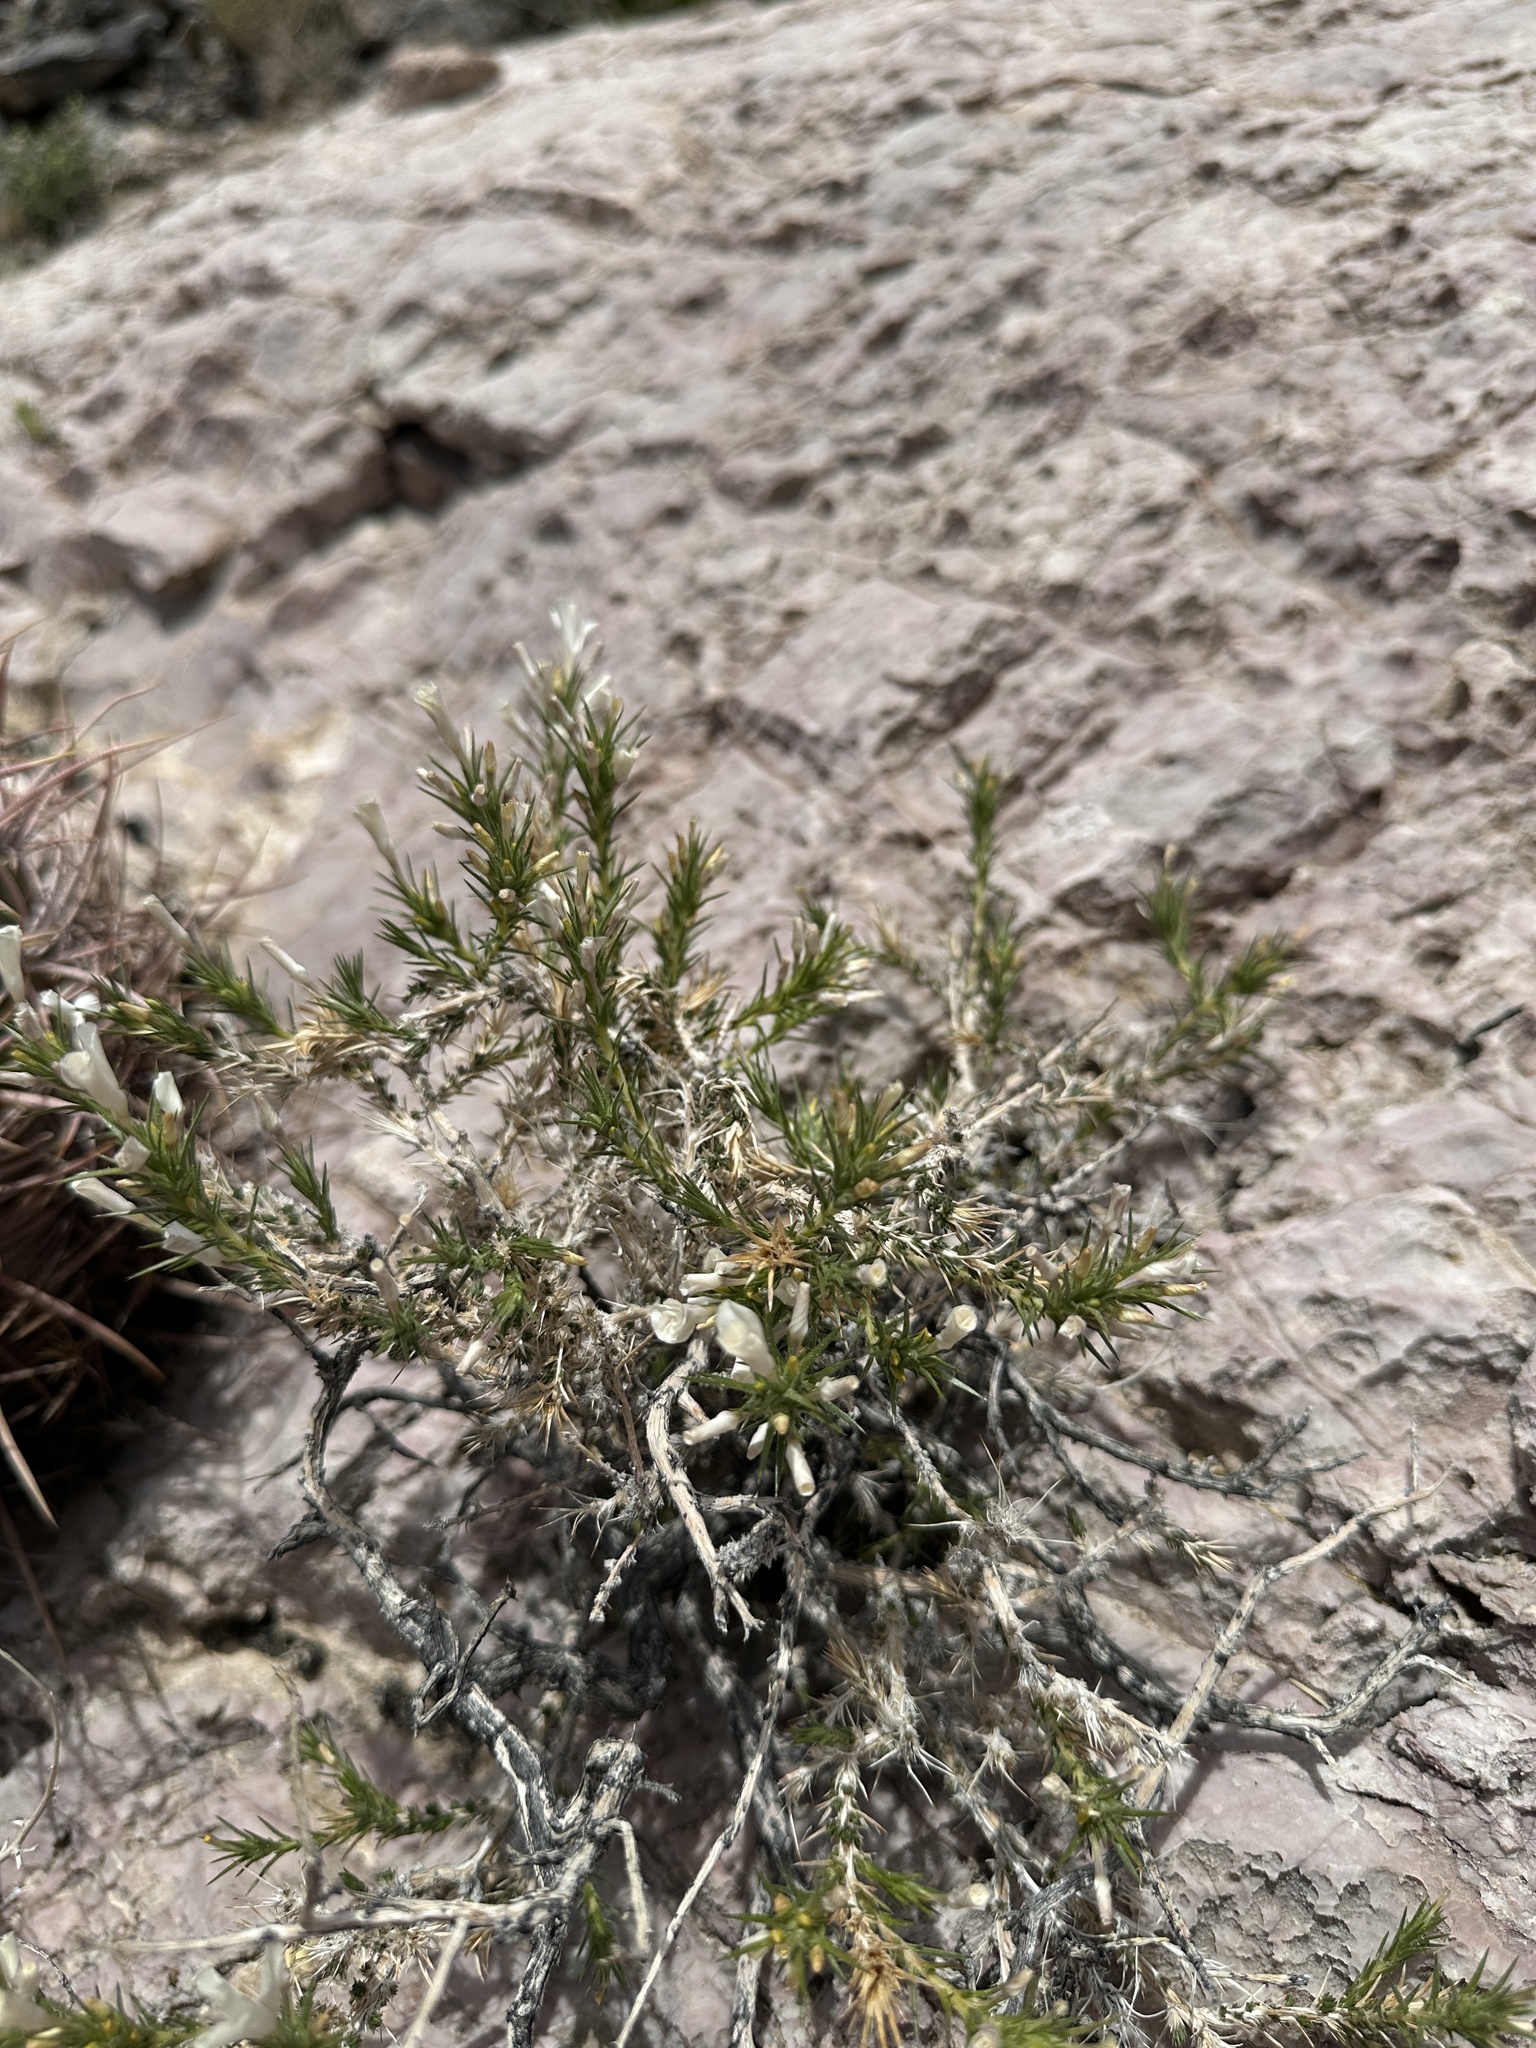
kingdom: Plantae
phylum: Tracheophyta
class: Magnoliopsida
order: Ericales
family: Polemoniaceae
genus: Linanthus
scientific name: Linanthus pungens
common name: Granite prickly phlox
